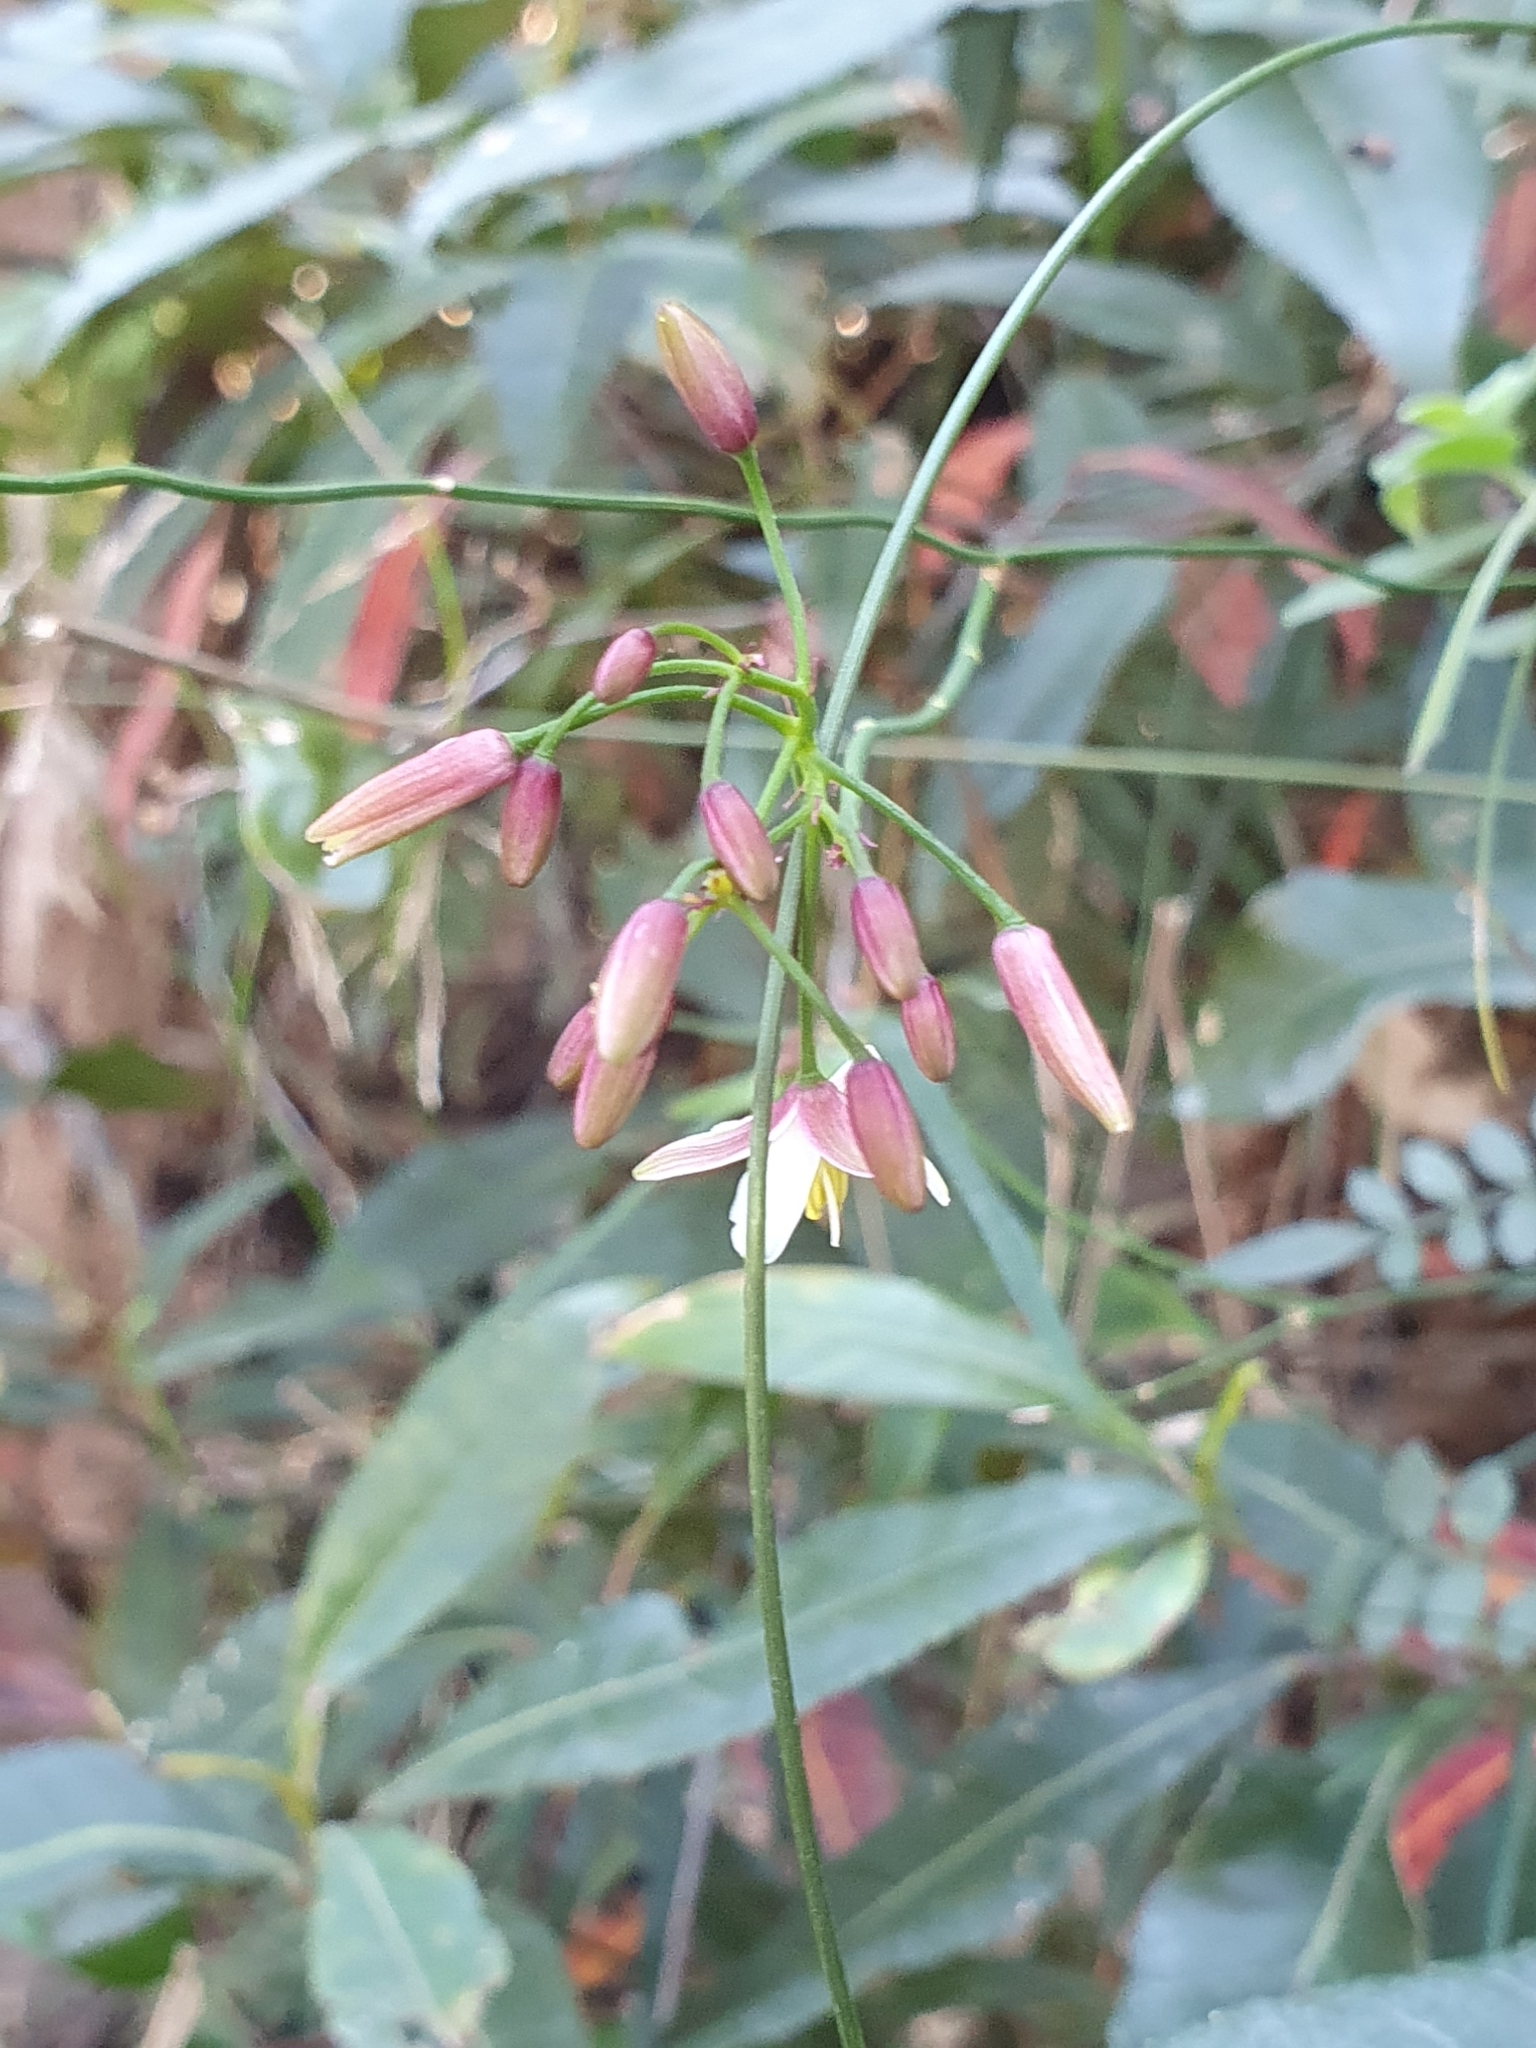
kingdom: Plantae
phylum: Tracheophyta
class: Liliopsida
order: Asparagales
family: Asphodelaceae
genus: Geitonoplesium
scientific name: Geitonoplesium cymosum
